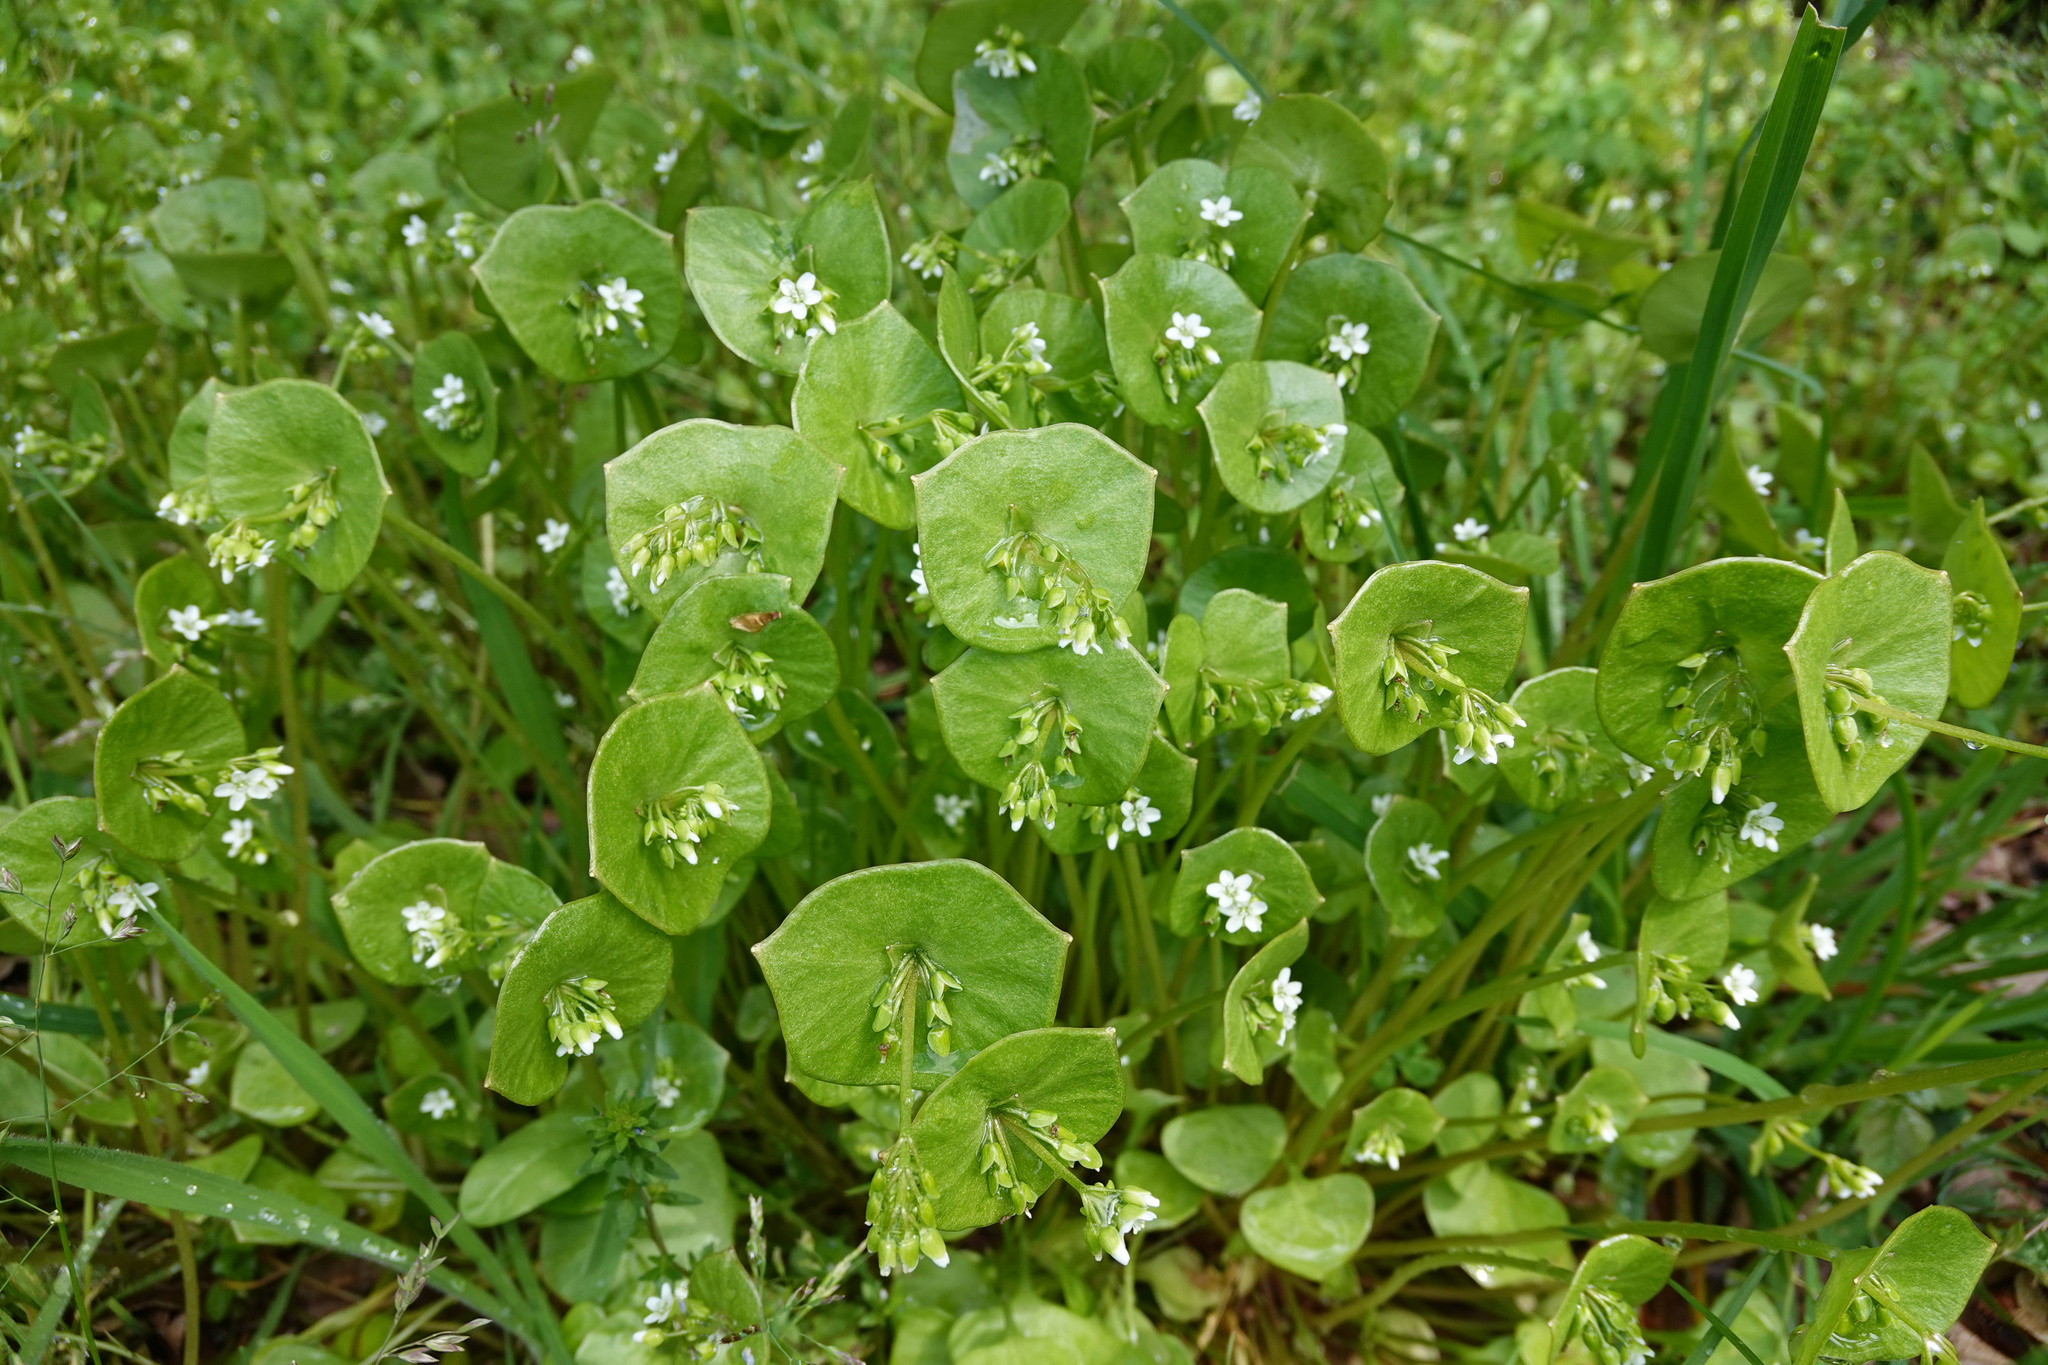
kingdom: Plantae
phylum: Tracheophyta
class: Magnoliopsida
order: Caryophyllales
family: Montiaceae
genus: Claytonia
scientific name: Claytonia perfoliata
